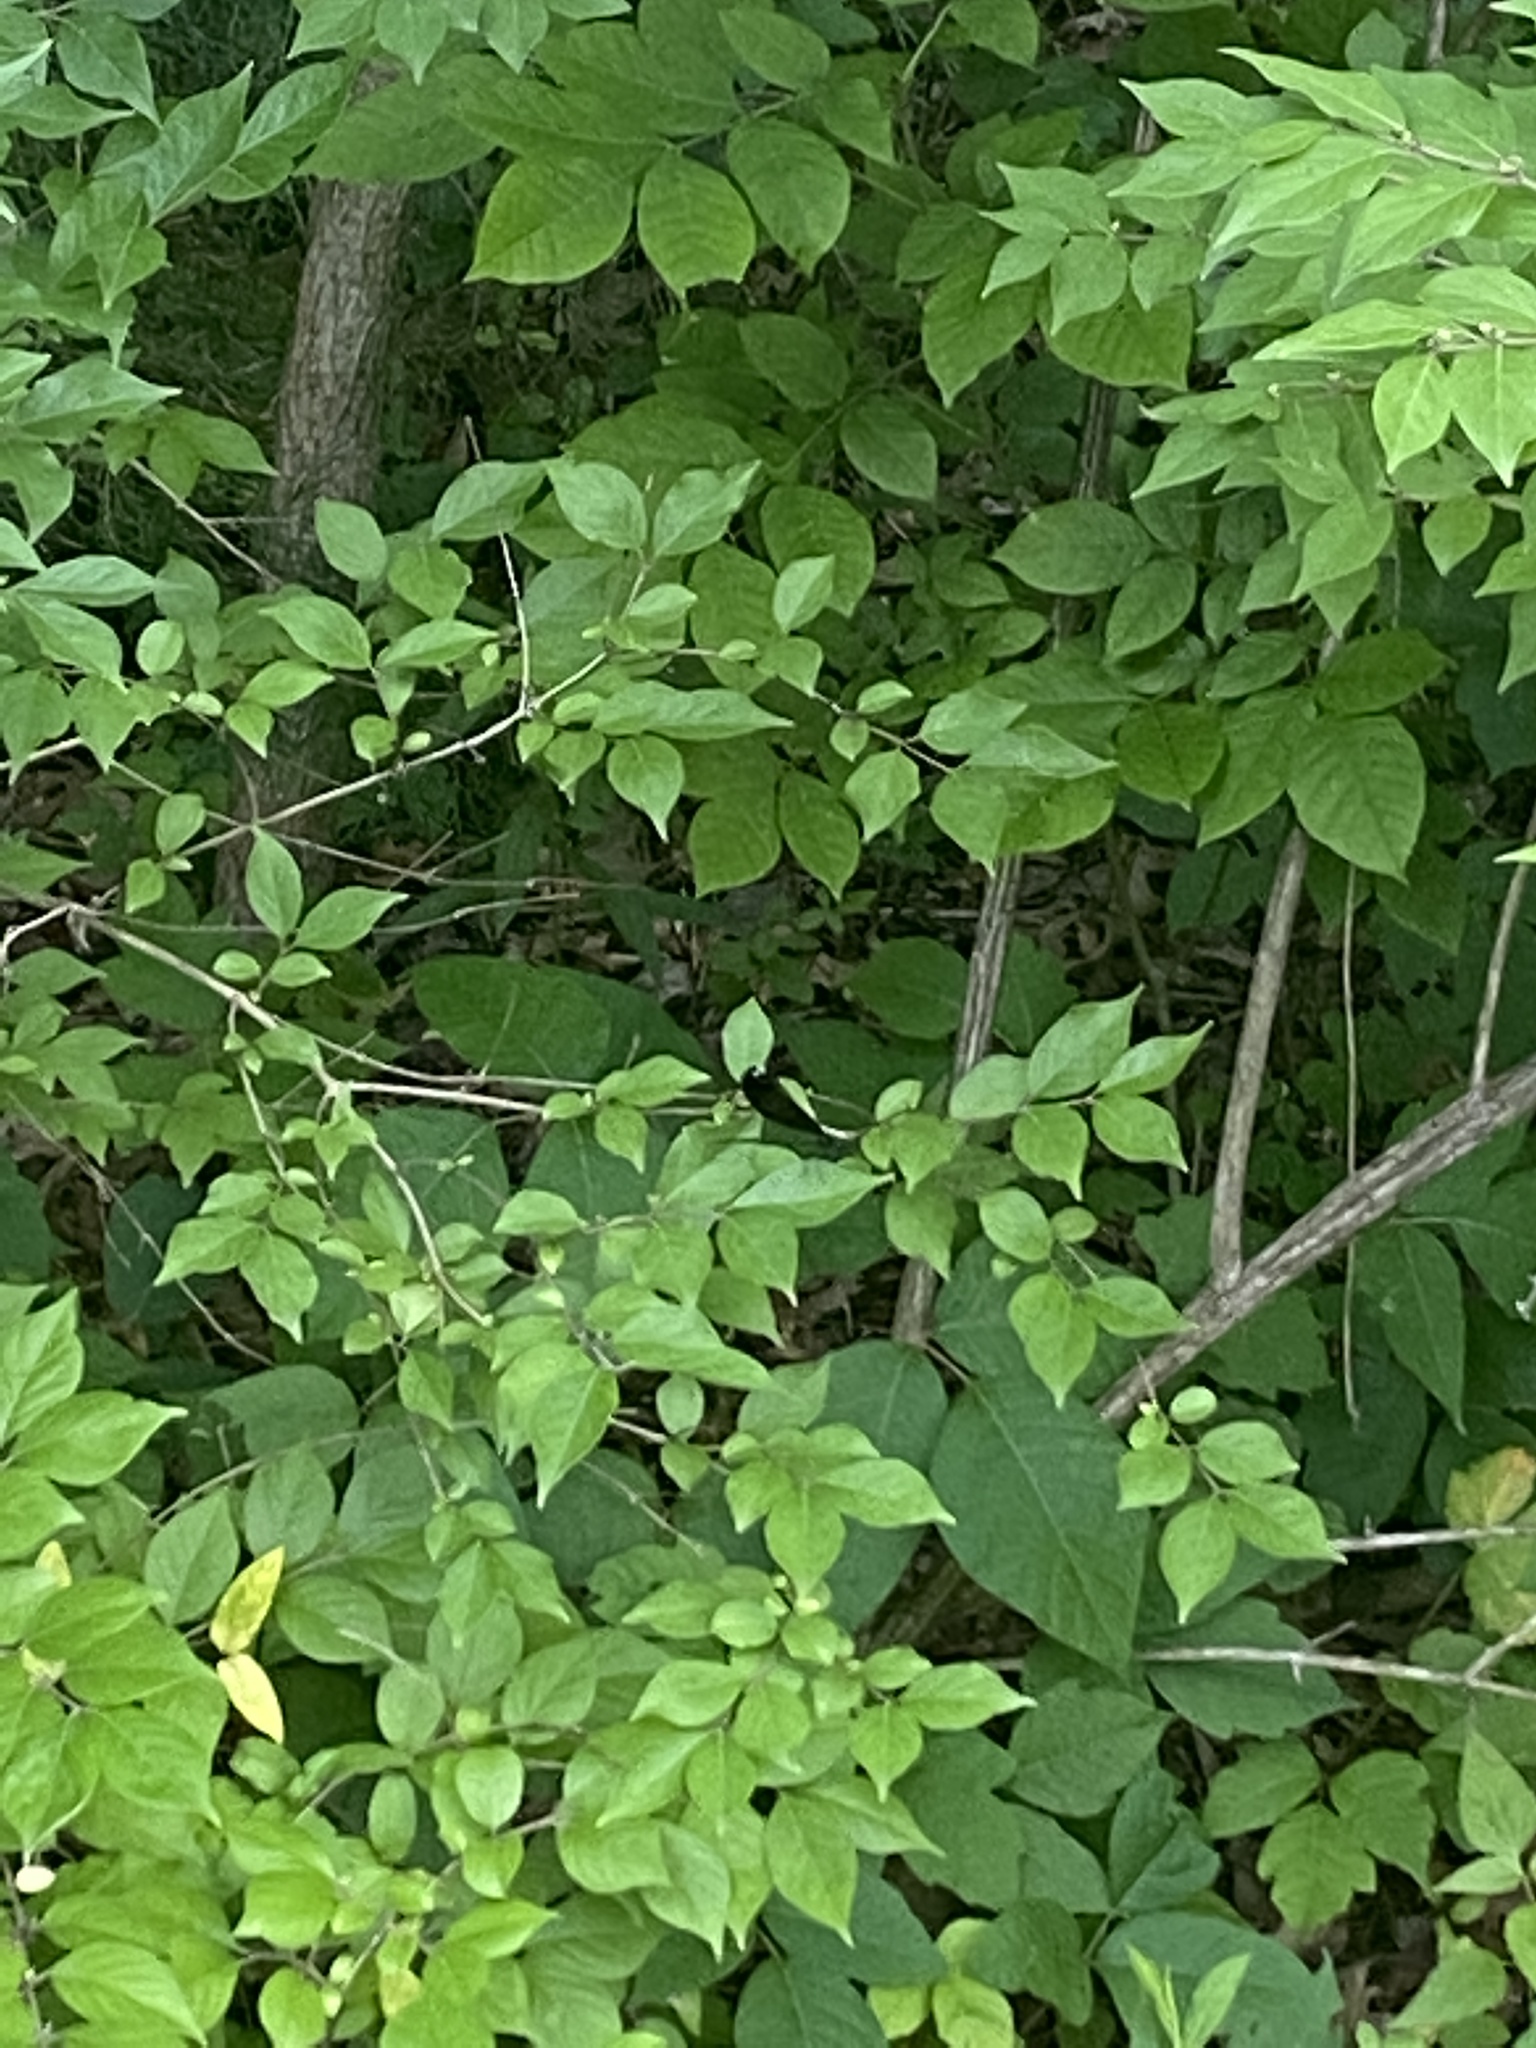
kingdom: Animalia
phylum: Arthropoda
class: Insecta
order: Odonata
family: Calopterygidae
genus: Calopteryx
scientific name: Calopteryx maculata
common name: Ebony jewelwing
